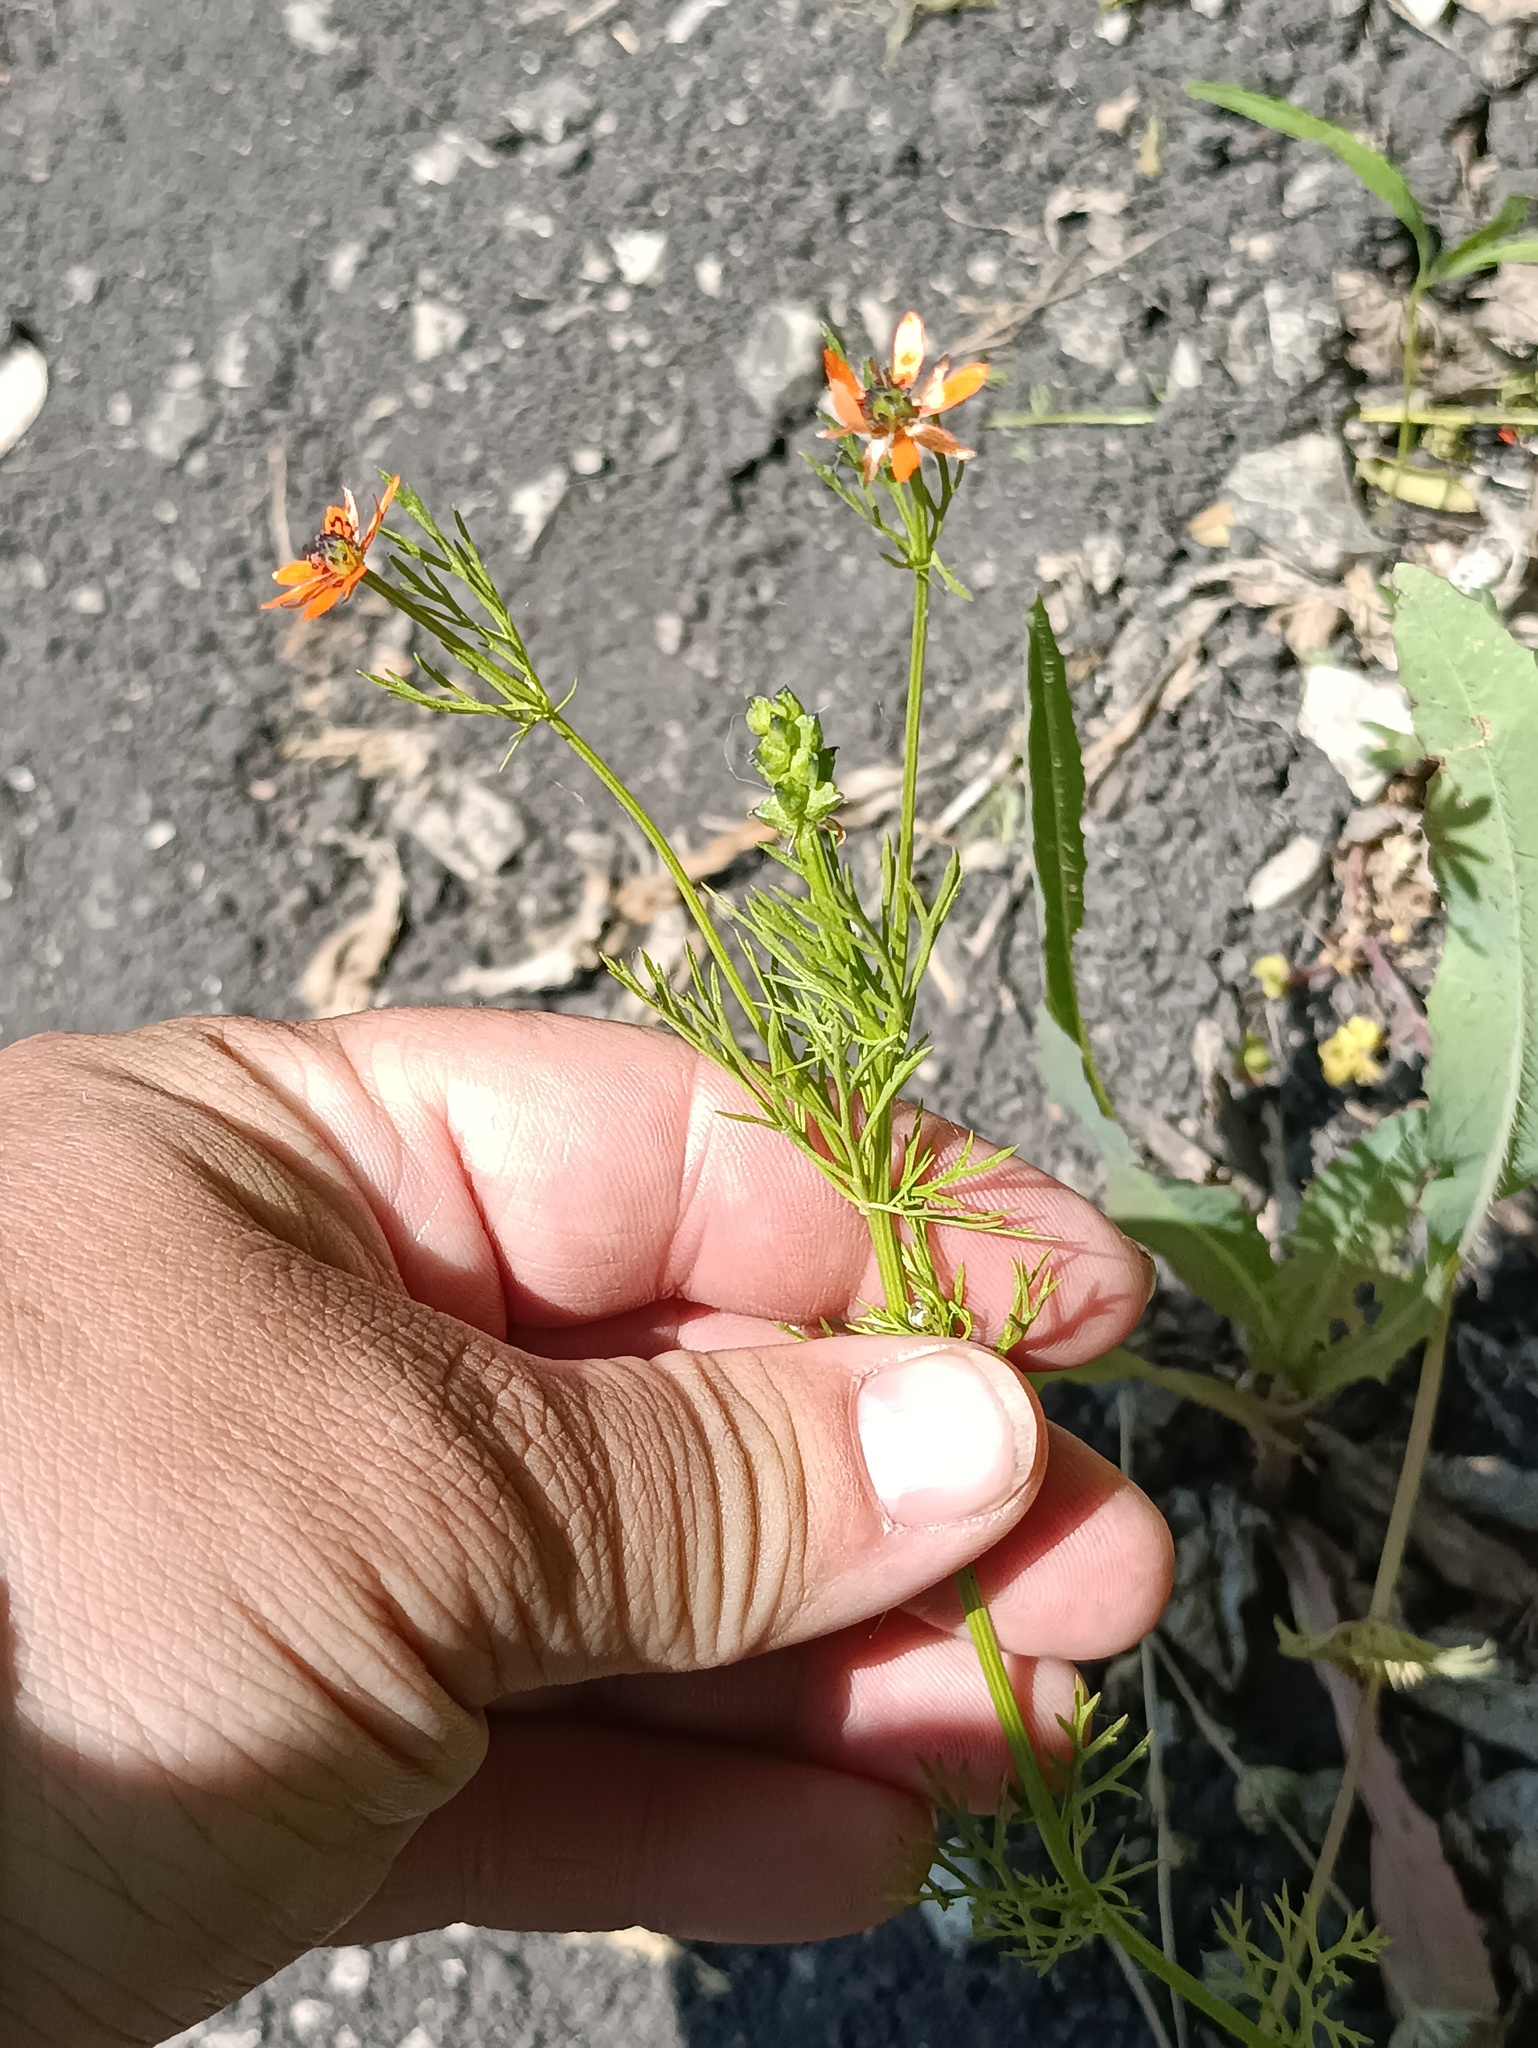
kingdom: Plantae
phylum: Tracheophyta
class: Magnoliopsida
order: Ranunculales
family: Ranunculaceae
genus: Adonis
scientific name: Adonis aestivalis
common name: Summer pheasant's-eye
